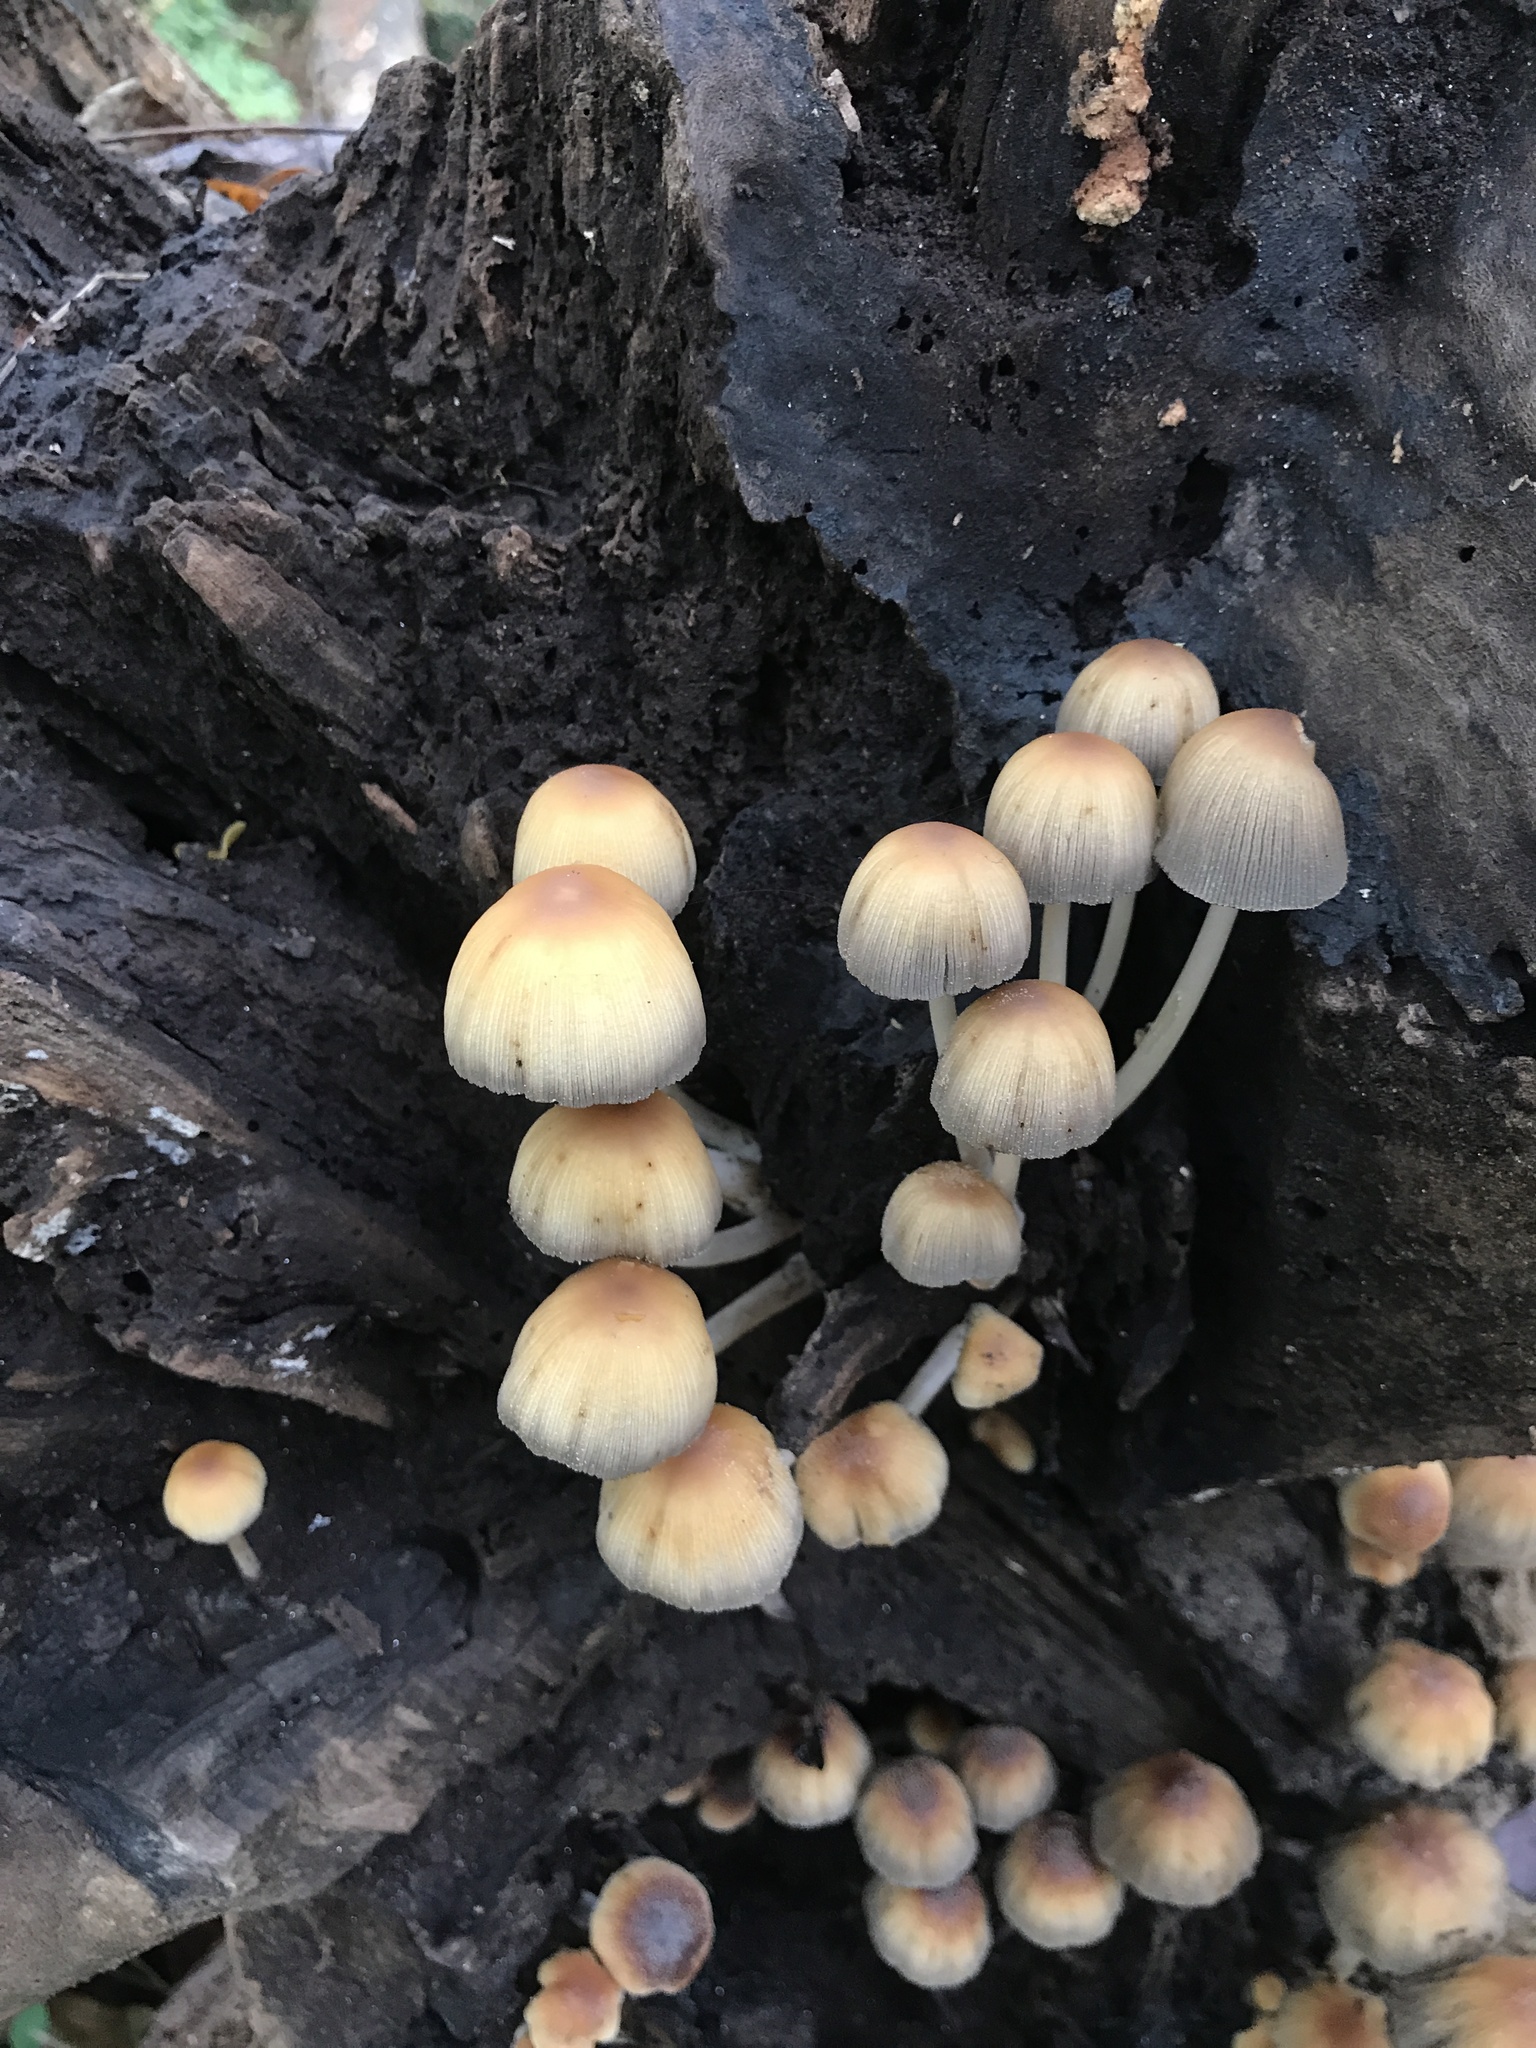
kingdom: Fungi
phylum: Basidiomycota
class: Agaricomycetes
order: Agaricales
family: Psathyrellaceae
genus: Coprinellus
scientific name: Coprinellus micaceus
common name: Glistening ink-cap
